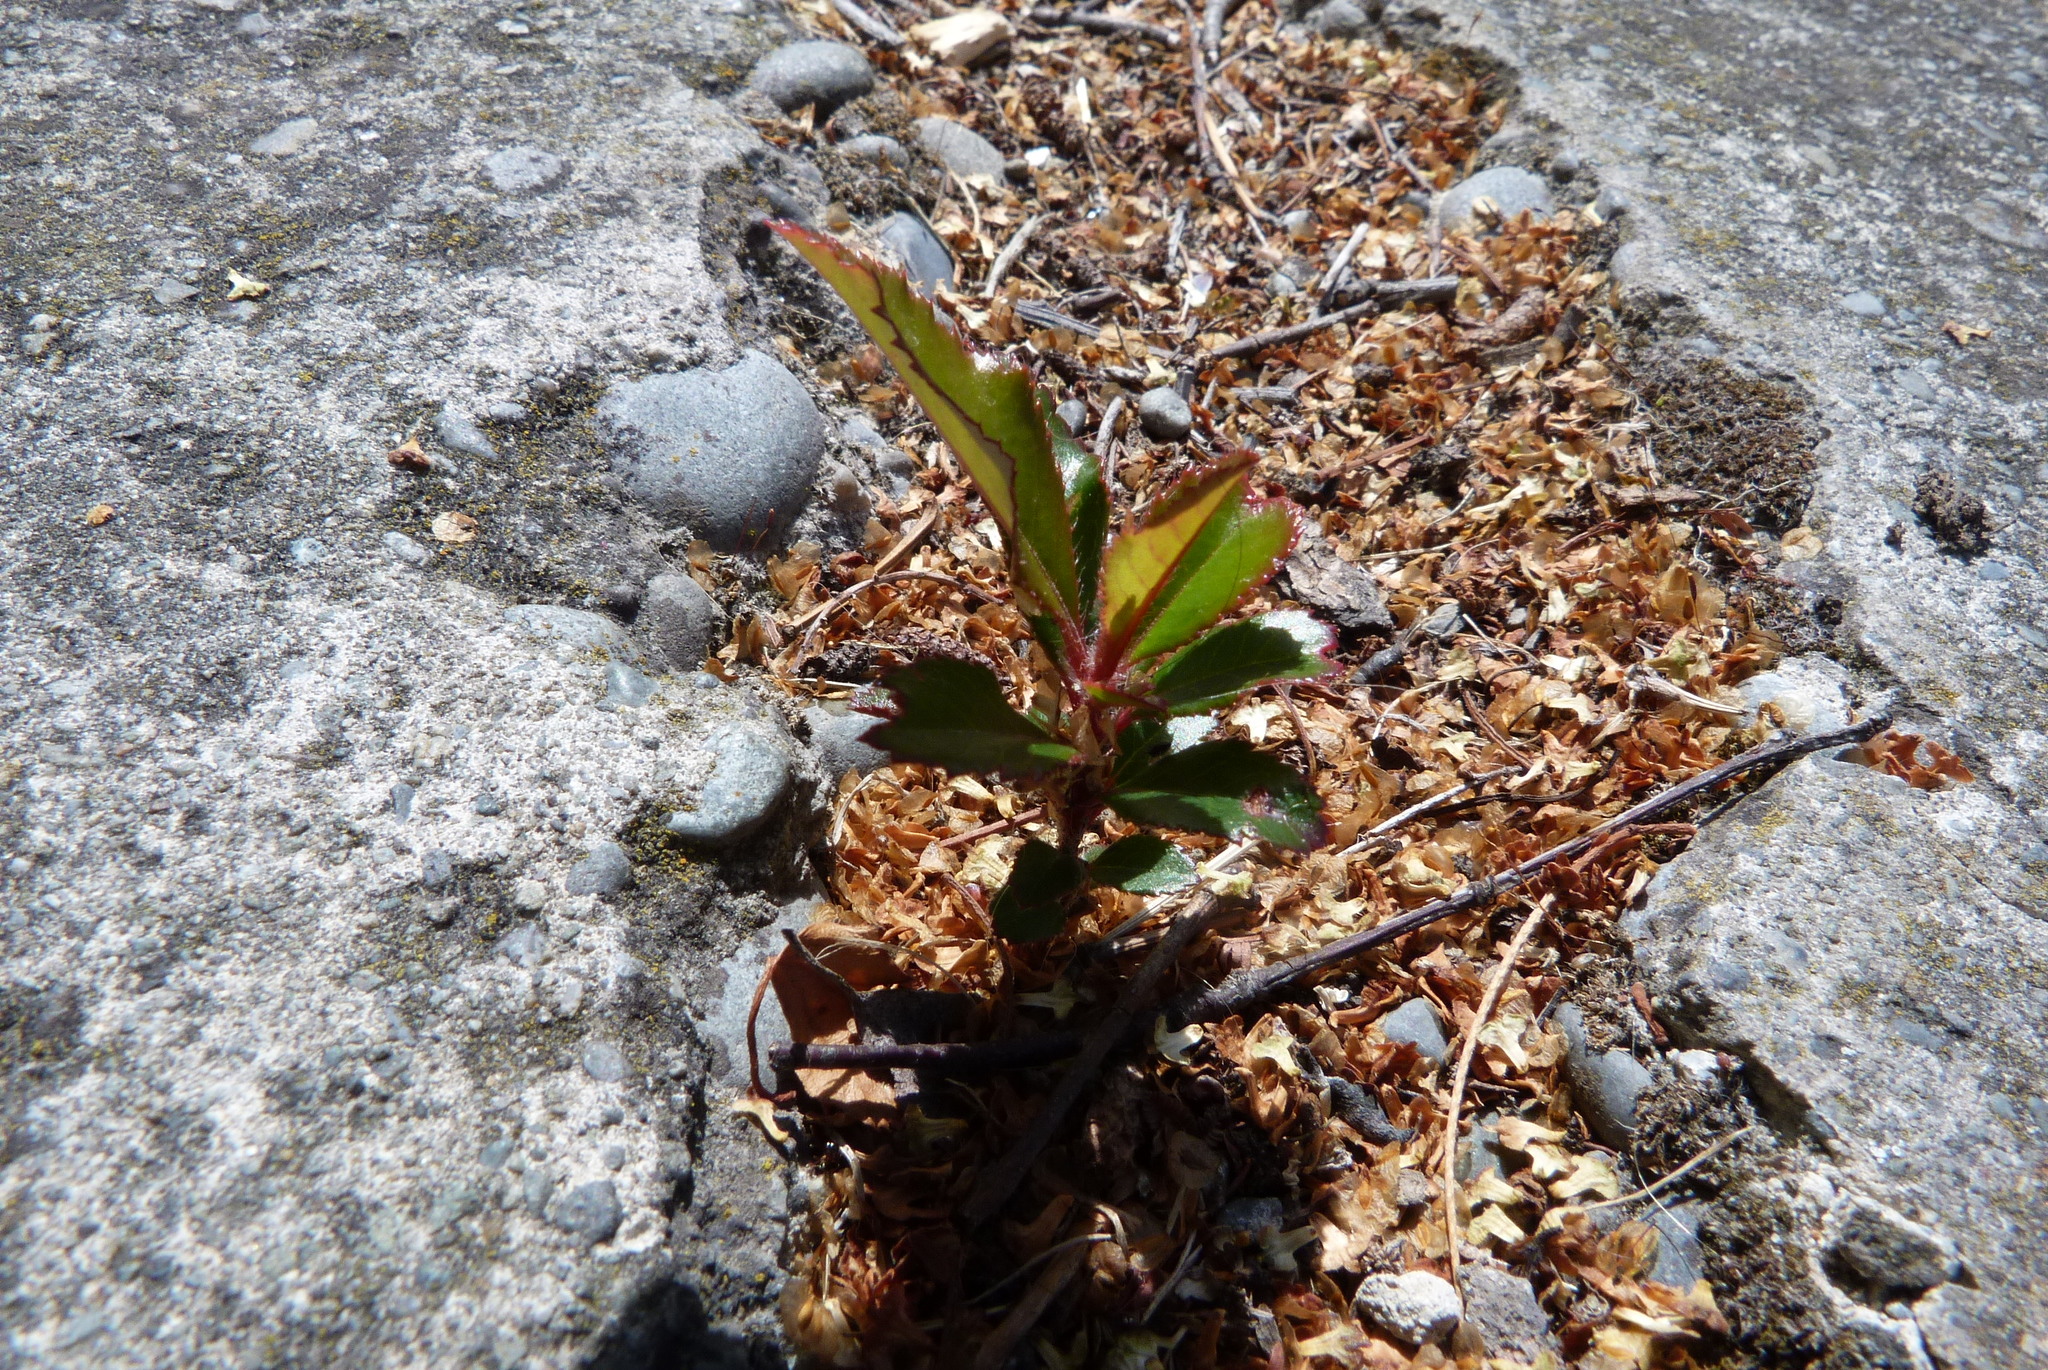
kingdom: Plantae
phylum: Tracheophyta
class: Magnoliopsida
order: Ericales
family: Ericaceae
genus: Arbutus
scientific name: Arbutus unedo
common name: Strawberry-tree
